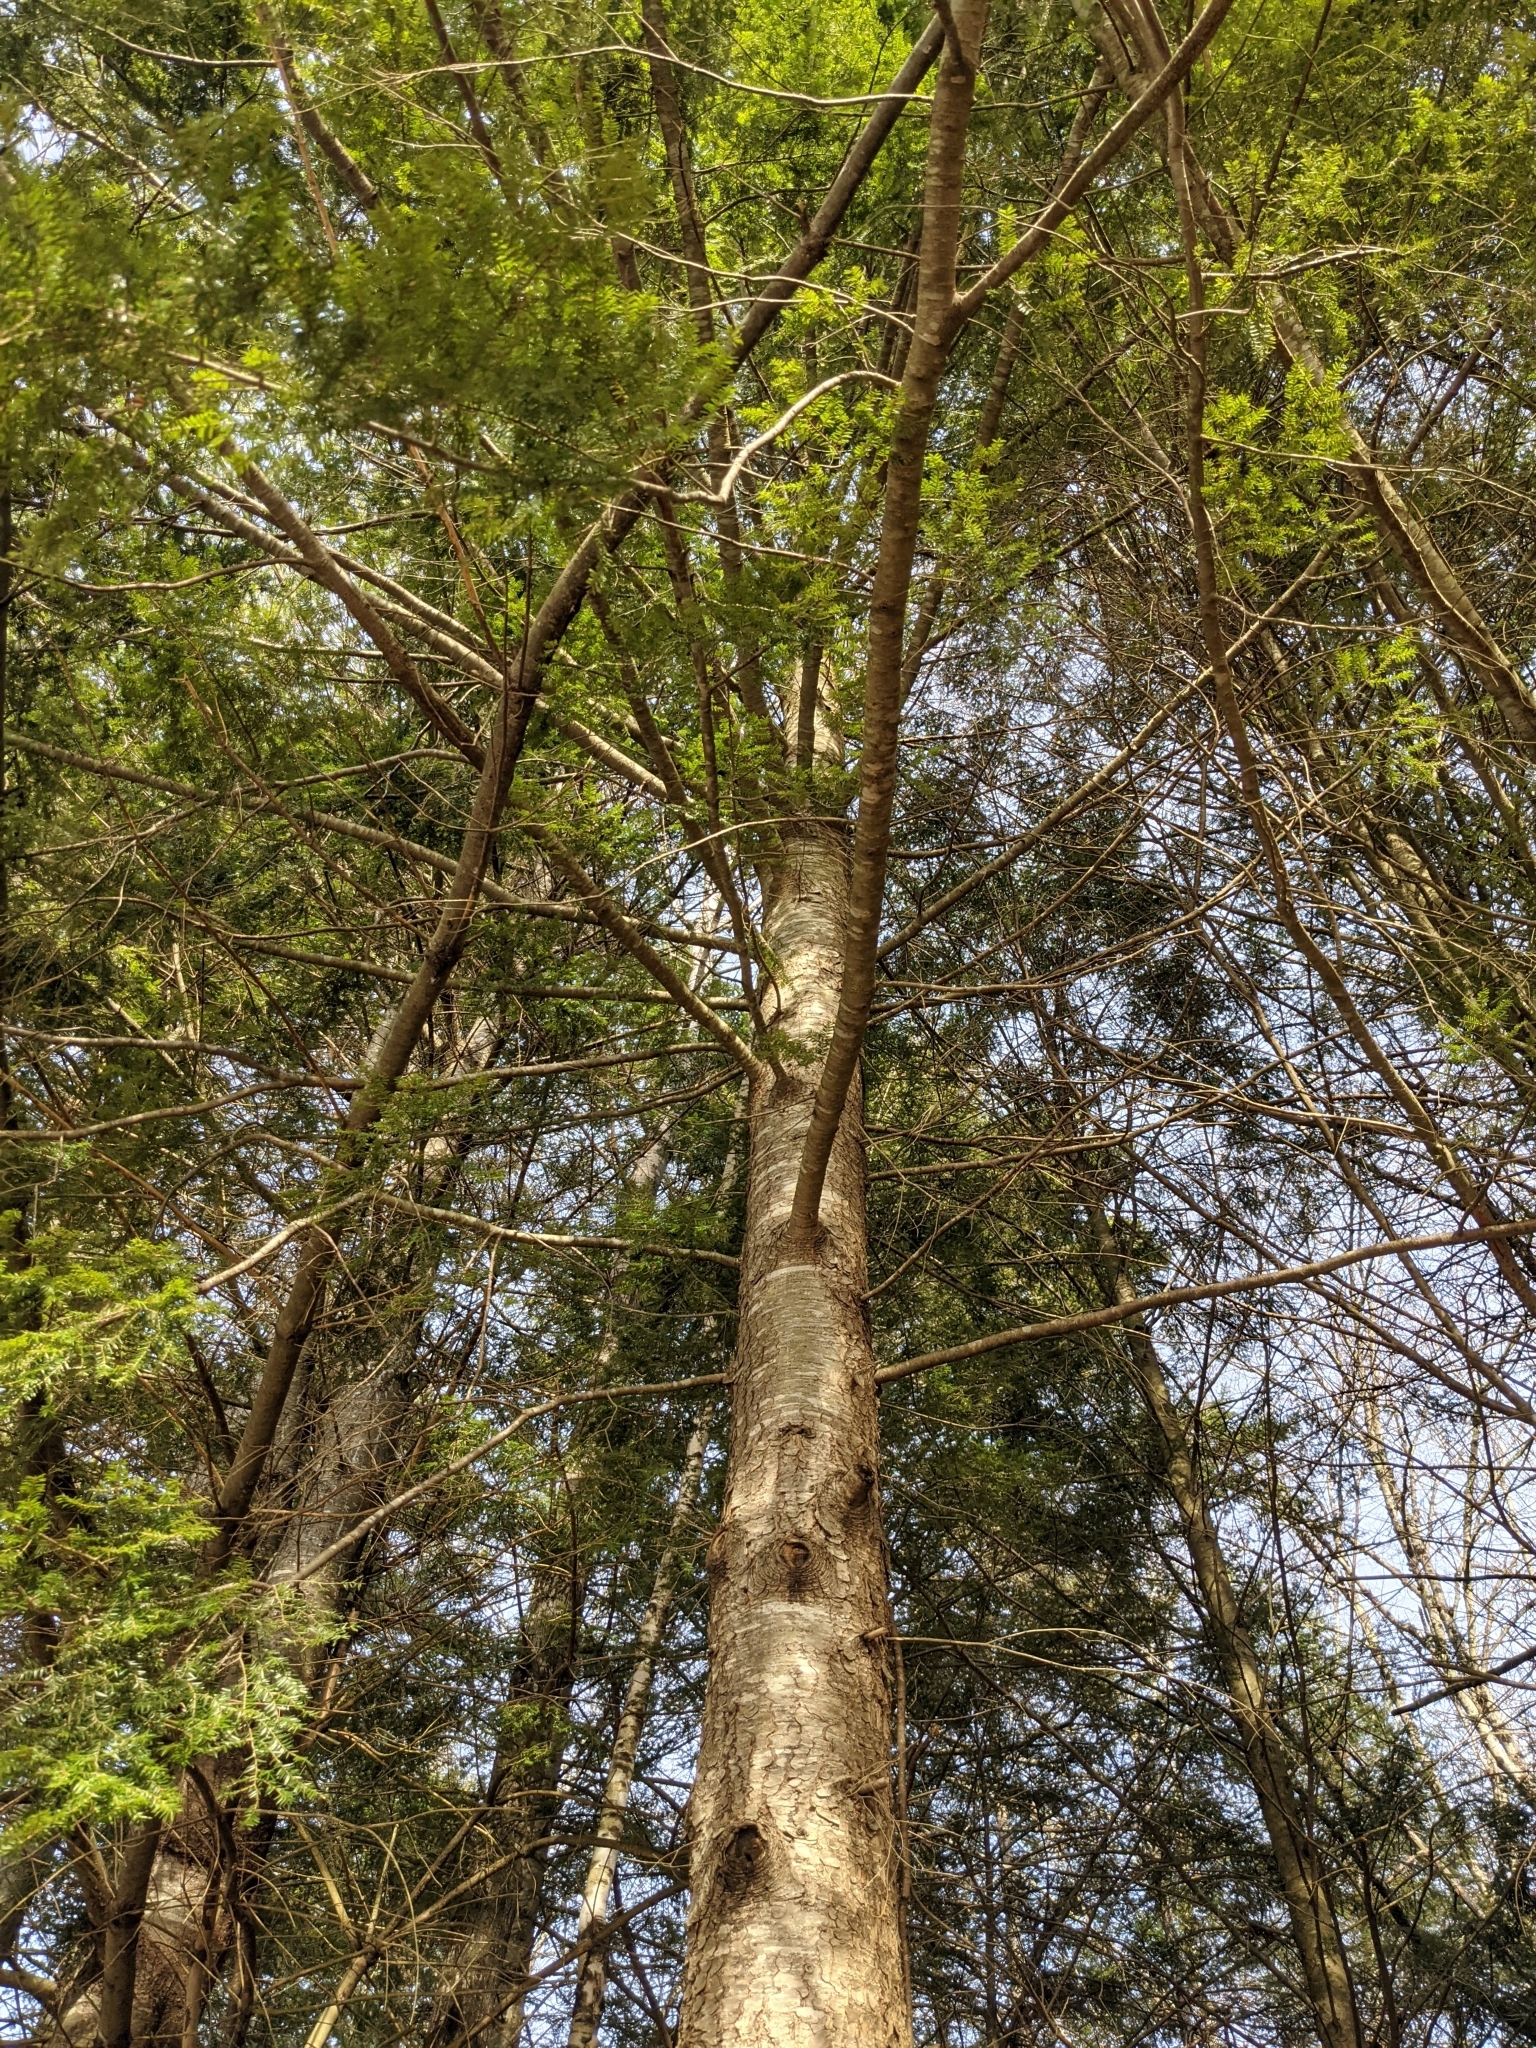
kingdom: Plantae
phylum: Tracheophyta
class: Pinopsida
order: Pinales
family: Pinaceae
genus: Tsuga
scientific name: Tsuga canadensis
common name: Eastern hemlock
